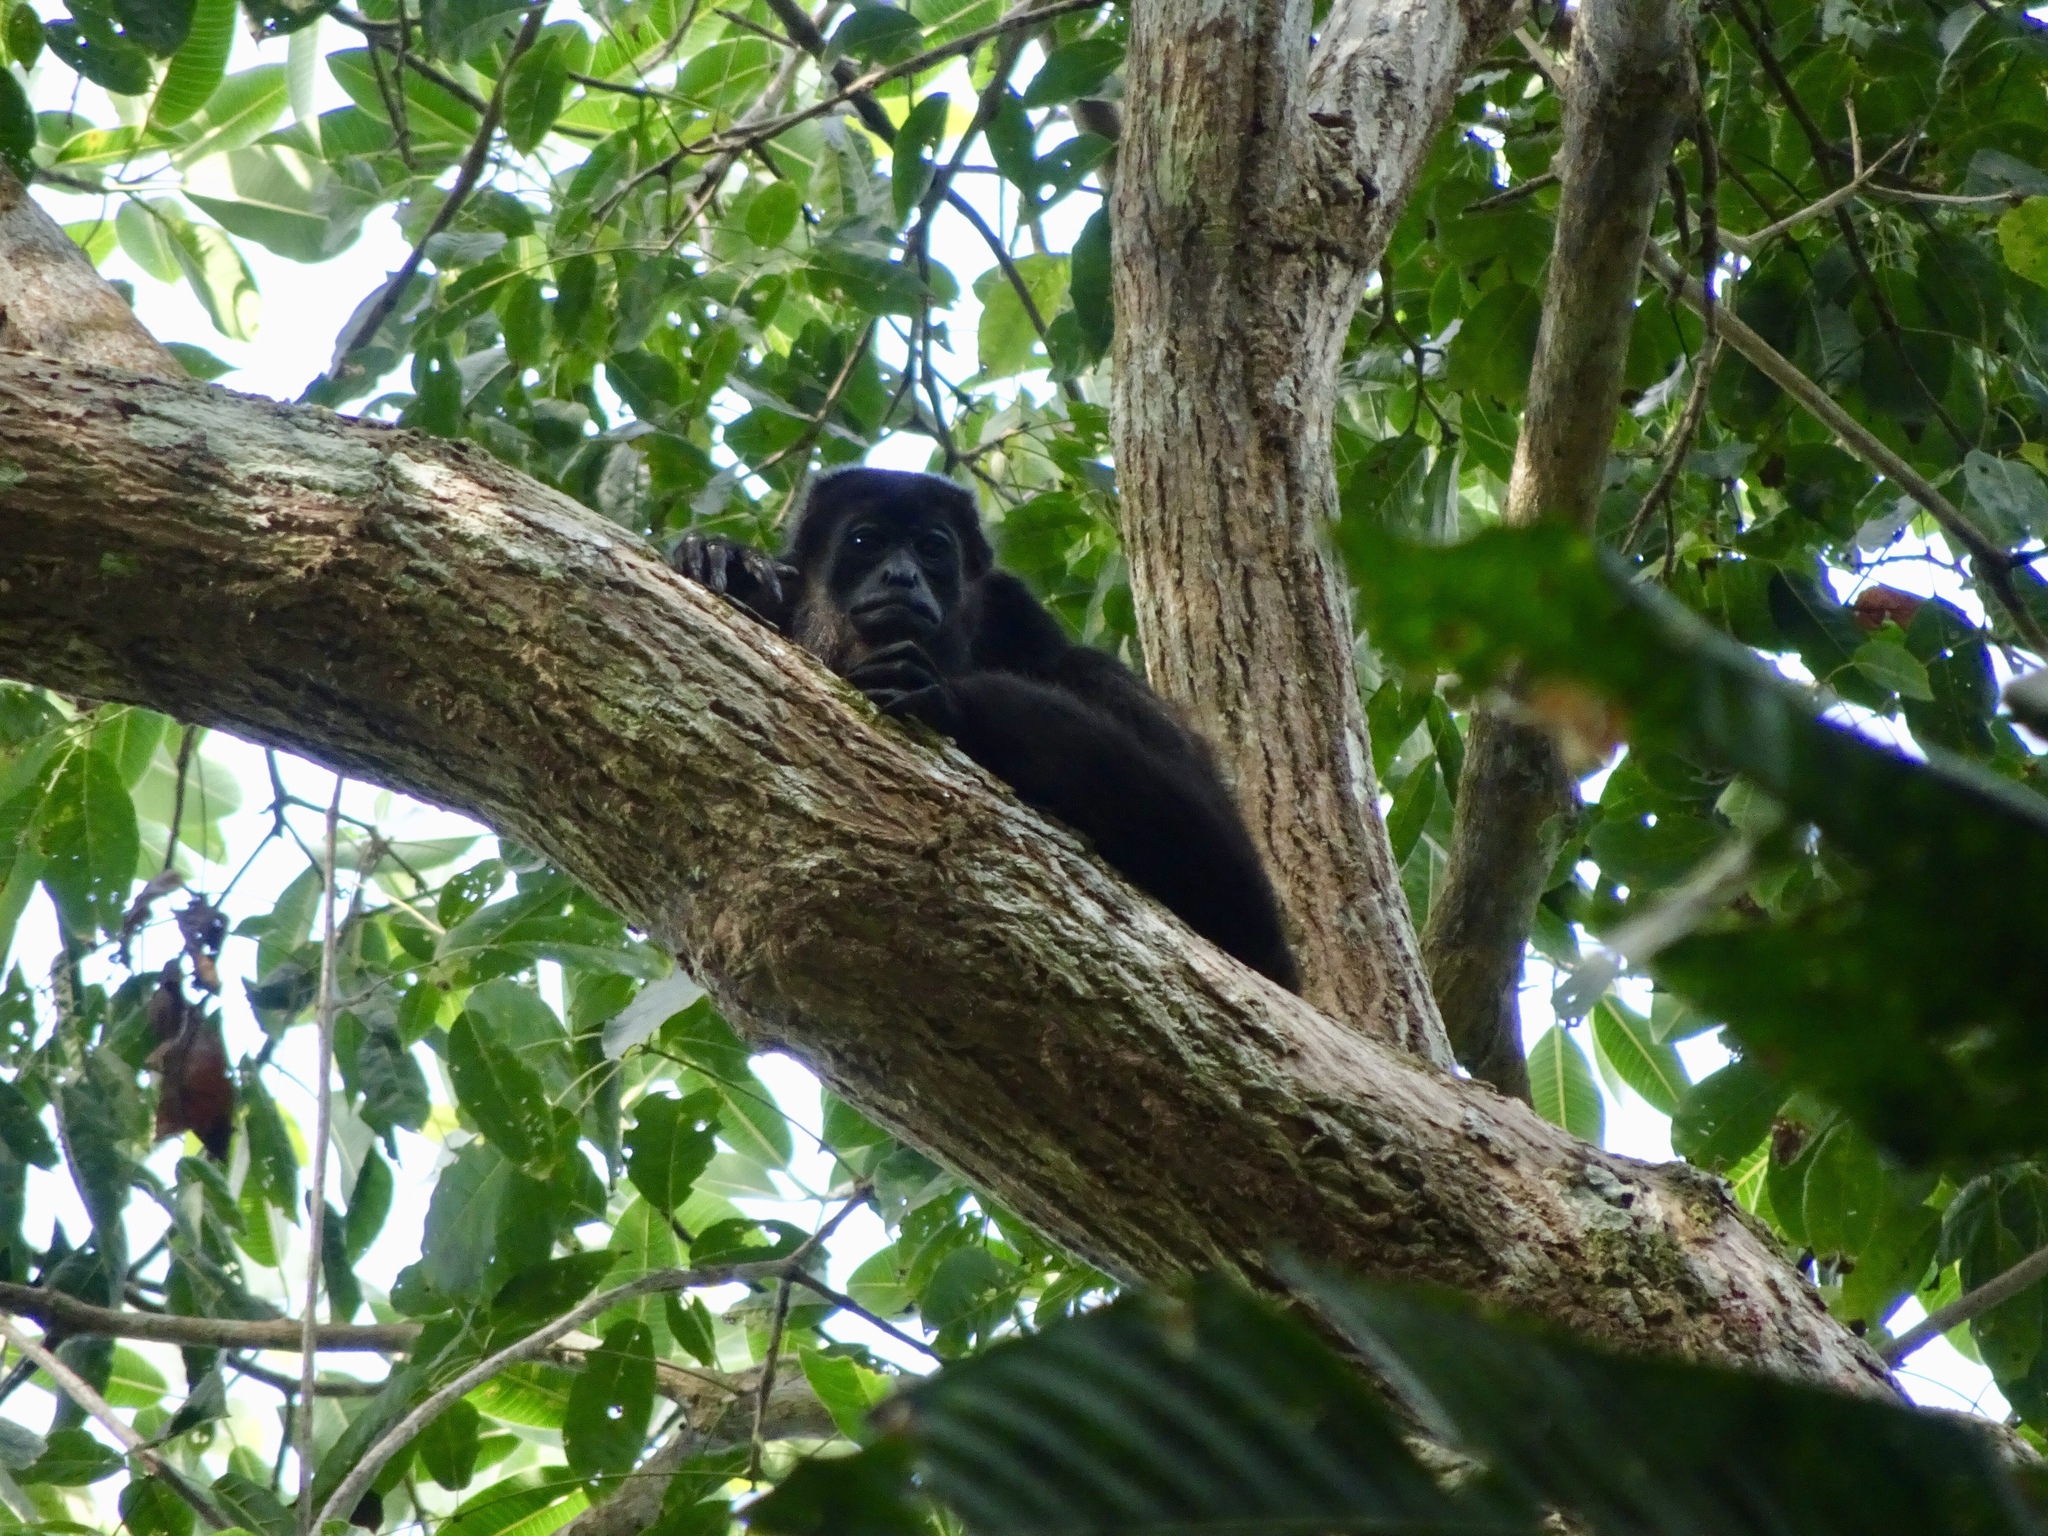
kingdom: Animalia
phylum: Chordata
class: Mammalia
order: Primates
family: Atelidae
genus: Alouatta
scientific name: Alouatta palliata
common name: Mantled howler
